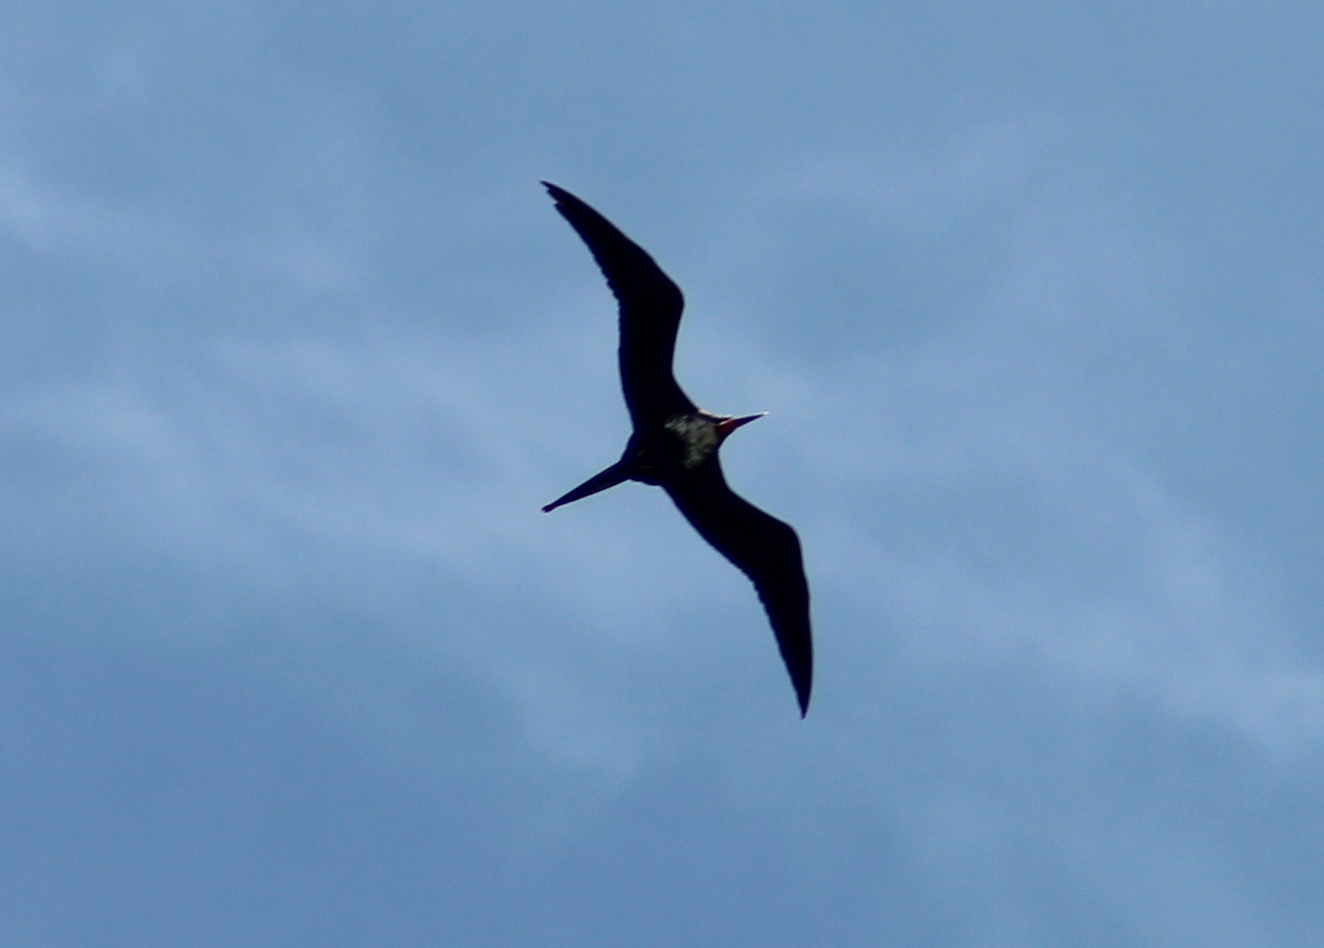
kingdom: Animalia
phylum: Chordata
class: Aves
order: Suliformes
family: Fregatidae
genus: Fregata
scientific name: Fregata minor
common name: Great frigatebird
